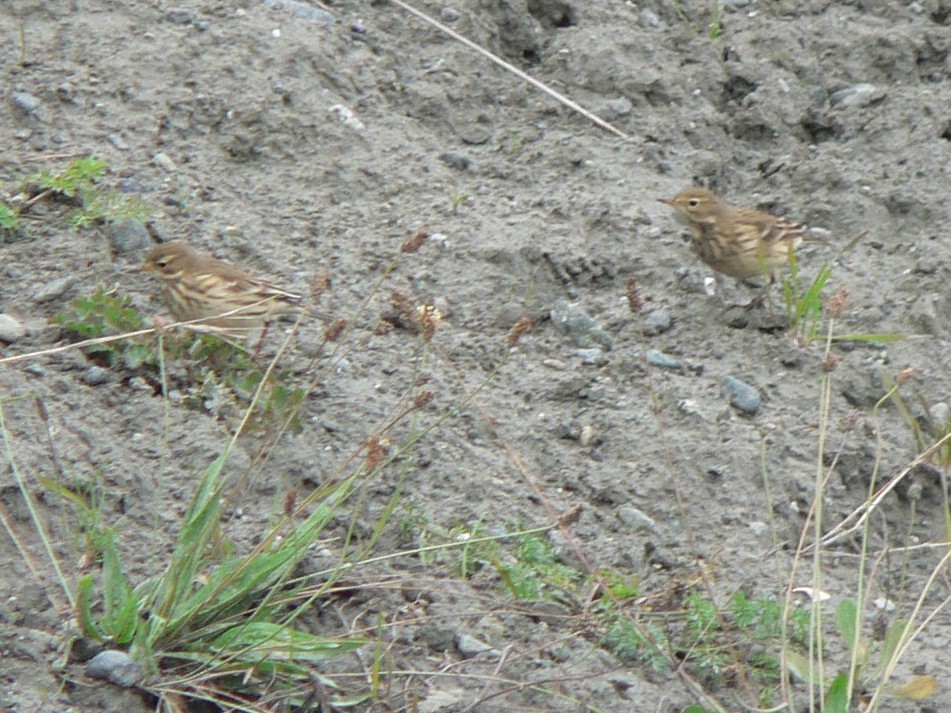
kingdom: Animalia
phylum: Chordata
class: Aves
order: Passeriformes
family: Motacillidae
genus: Anthus
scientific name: Anthus rubescens
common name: Buff-bellied pipit
